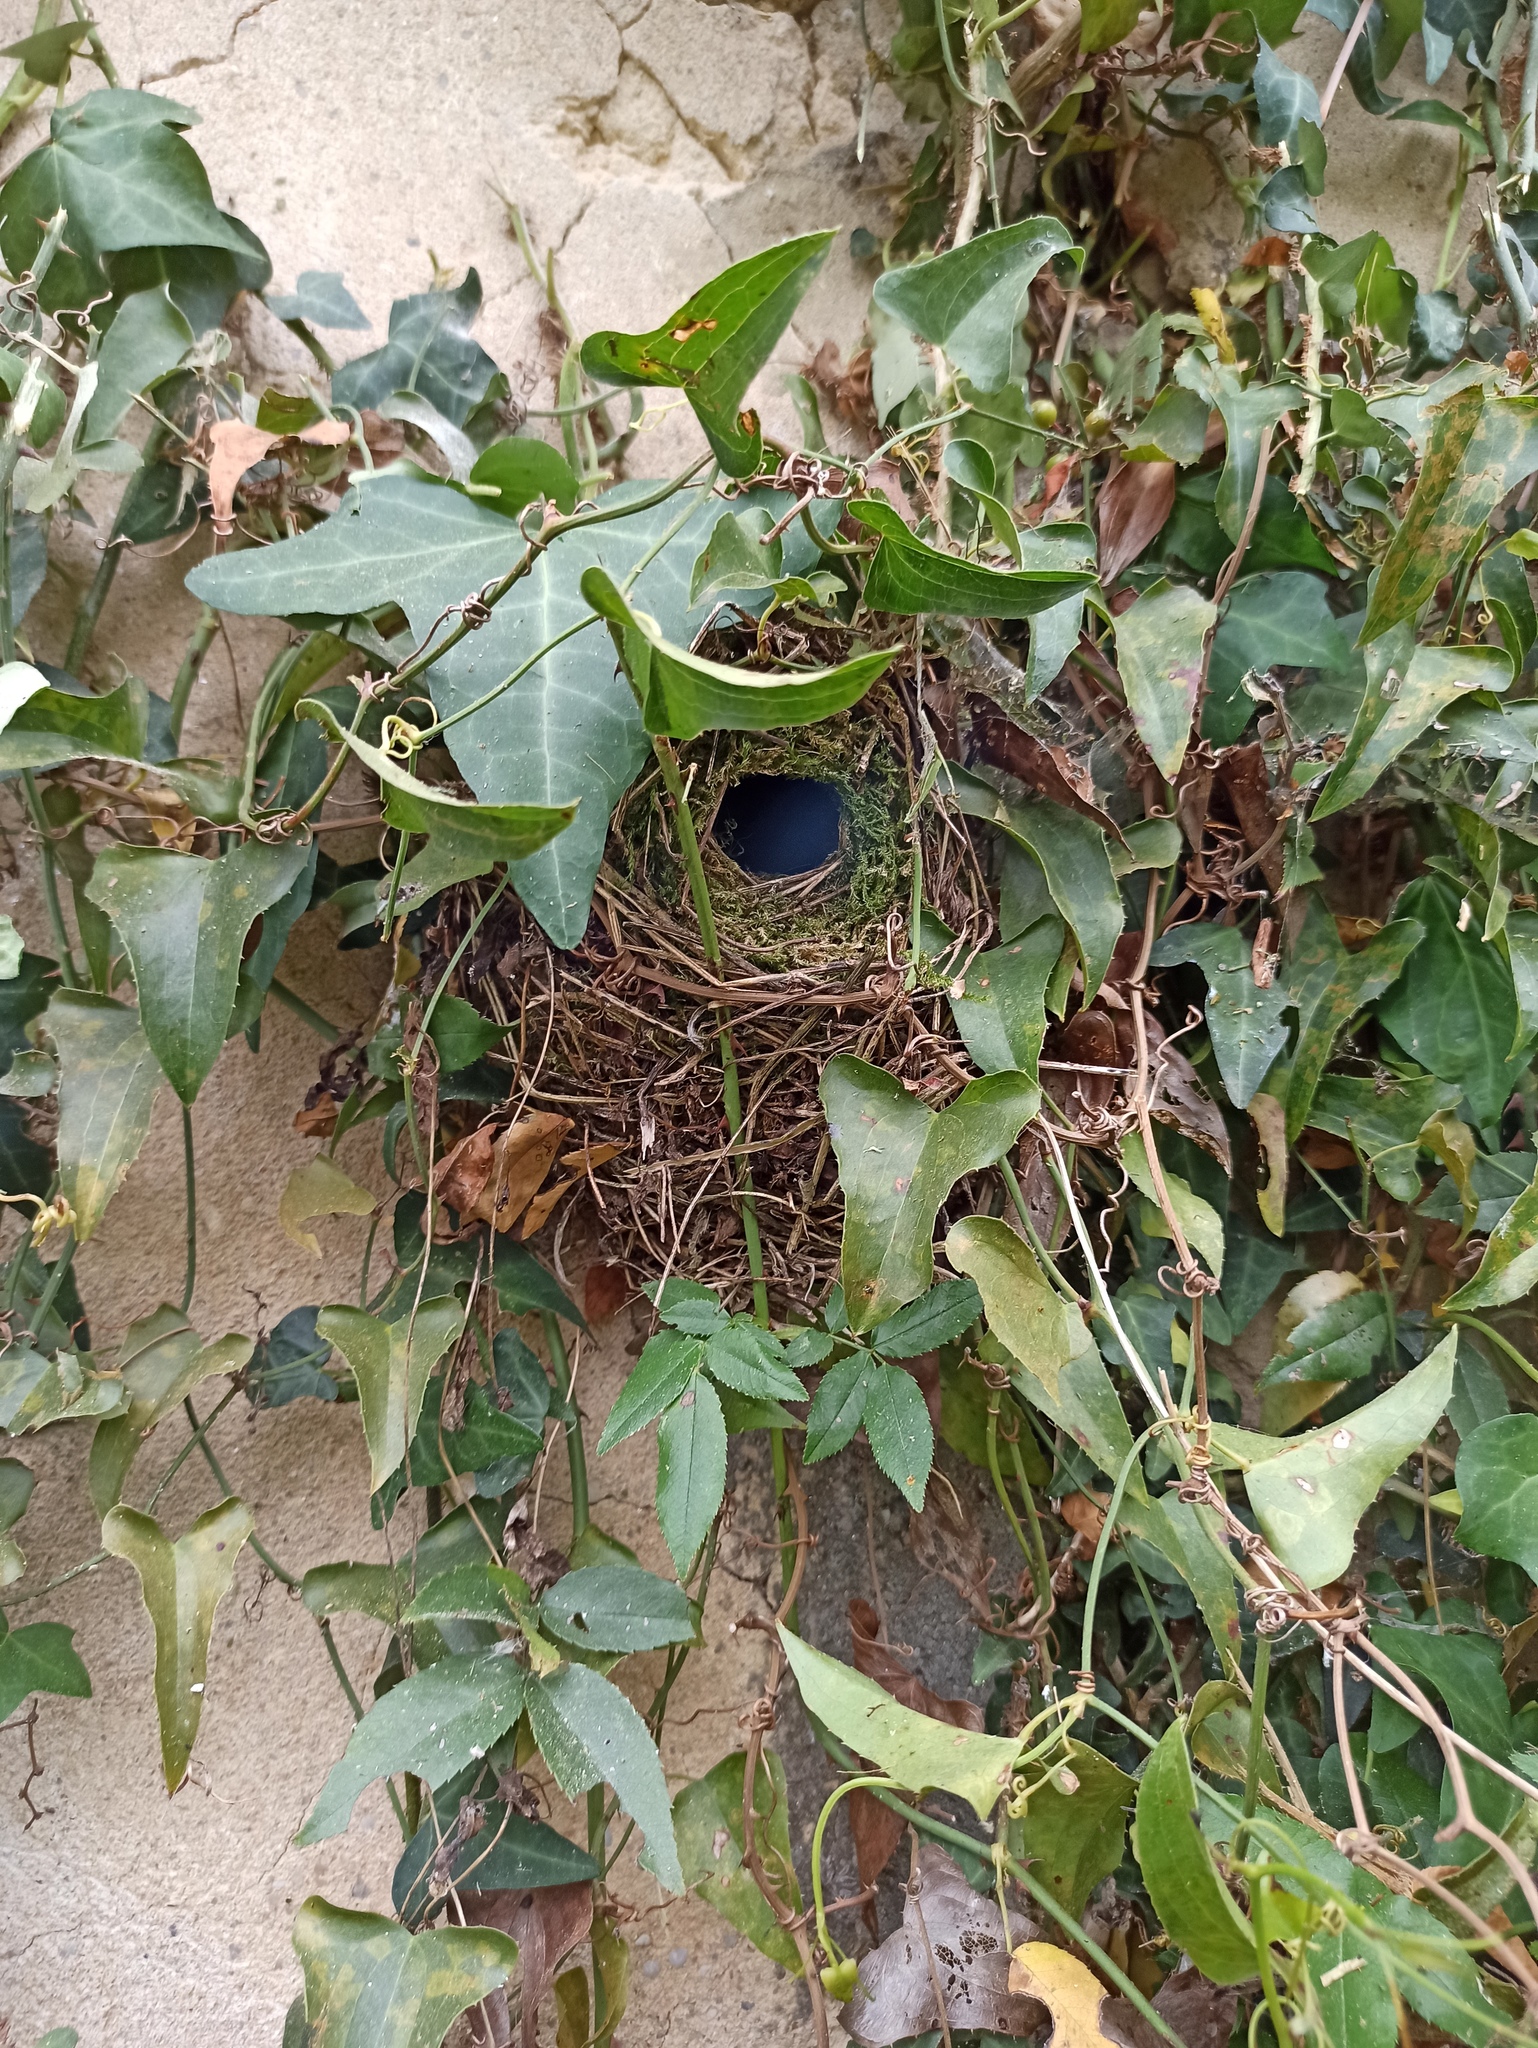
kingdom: Animalia
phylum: Chordata
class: Aves
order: Passeriformes
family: Troglodytidae
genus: Troglodytes
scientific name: Troglodytes troglodytes
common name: Eurasian wren
